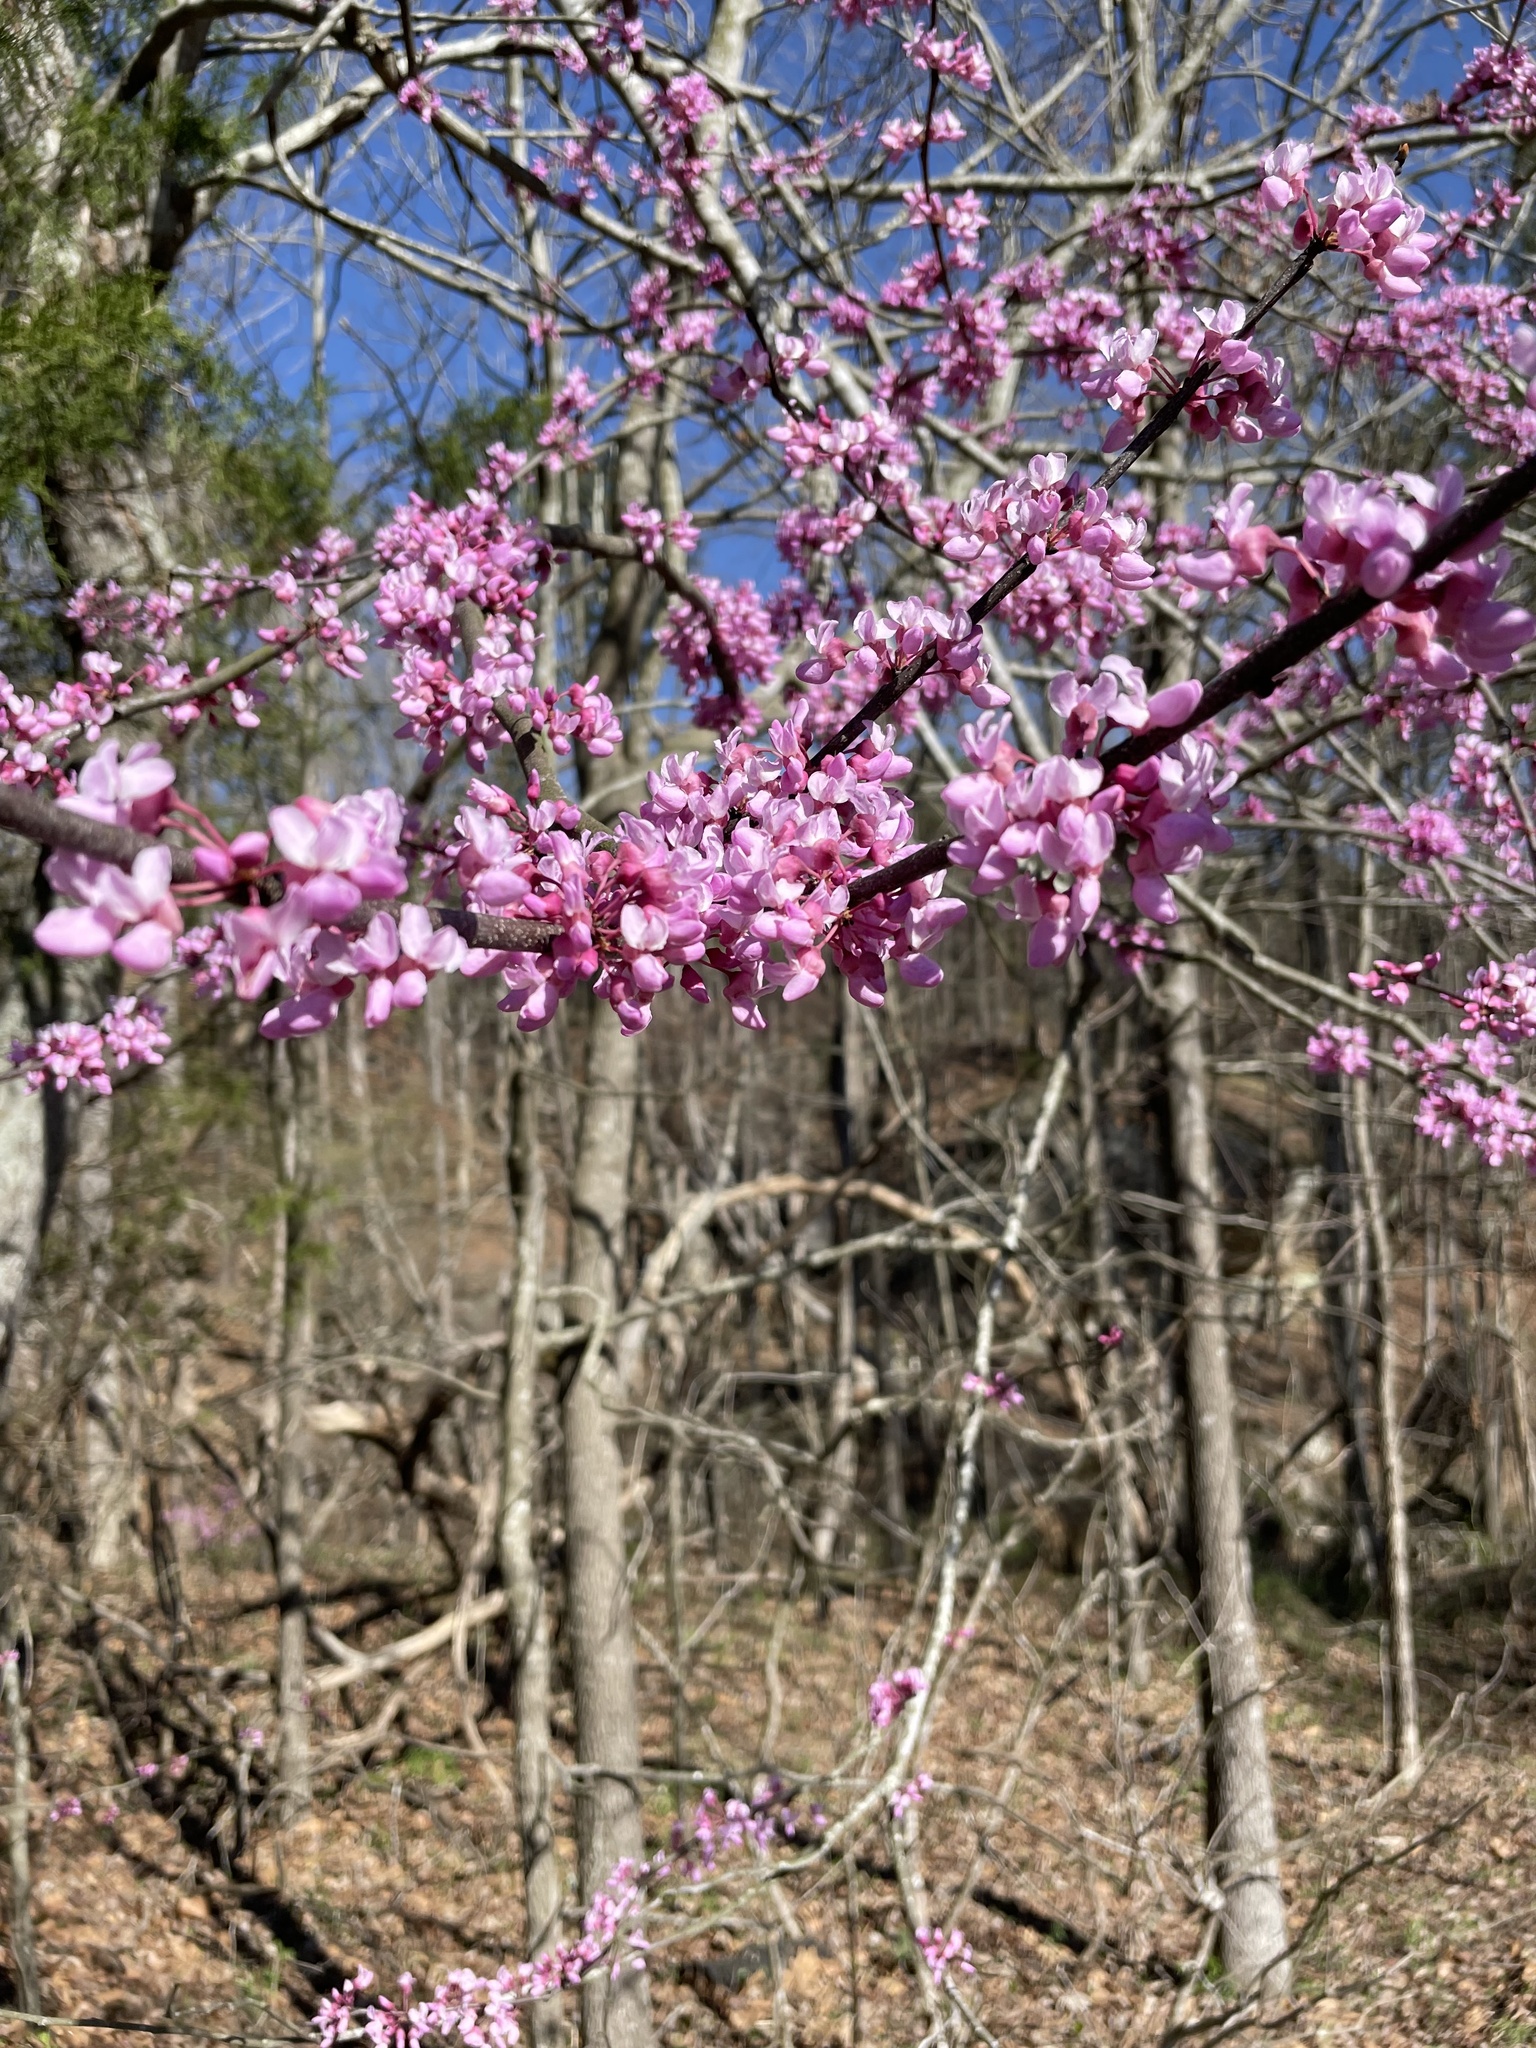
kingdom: Plantae
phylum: Tracheophyta
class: Magnoliopsida
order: Fabales
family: Fabaceae
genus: Cercis
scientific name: Cercis canadensis
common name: Eastern redbud
